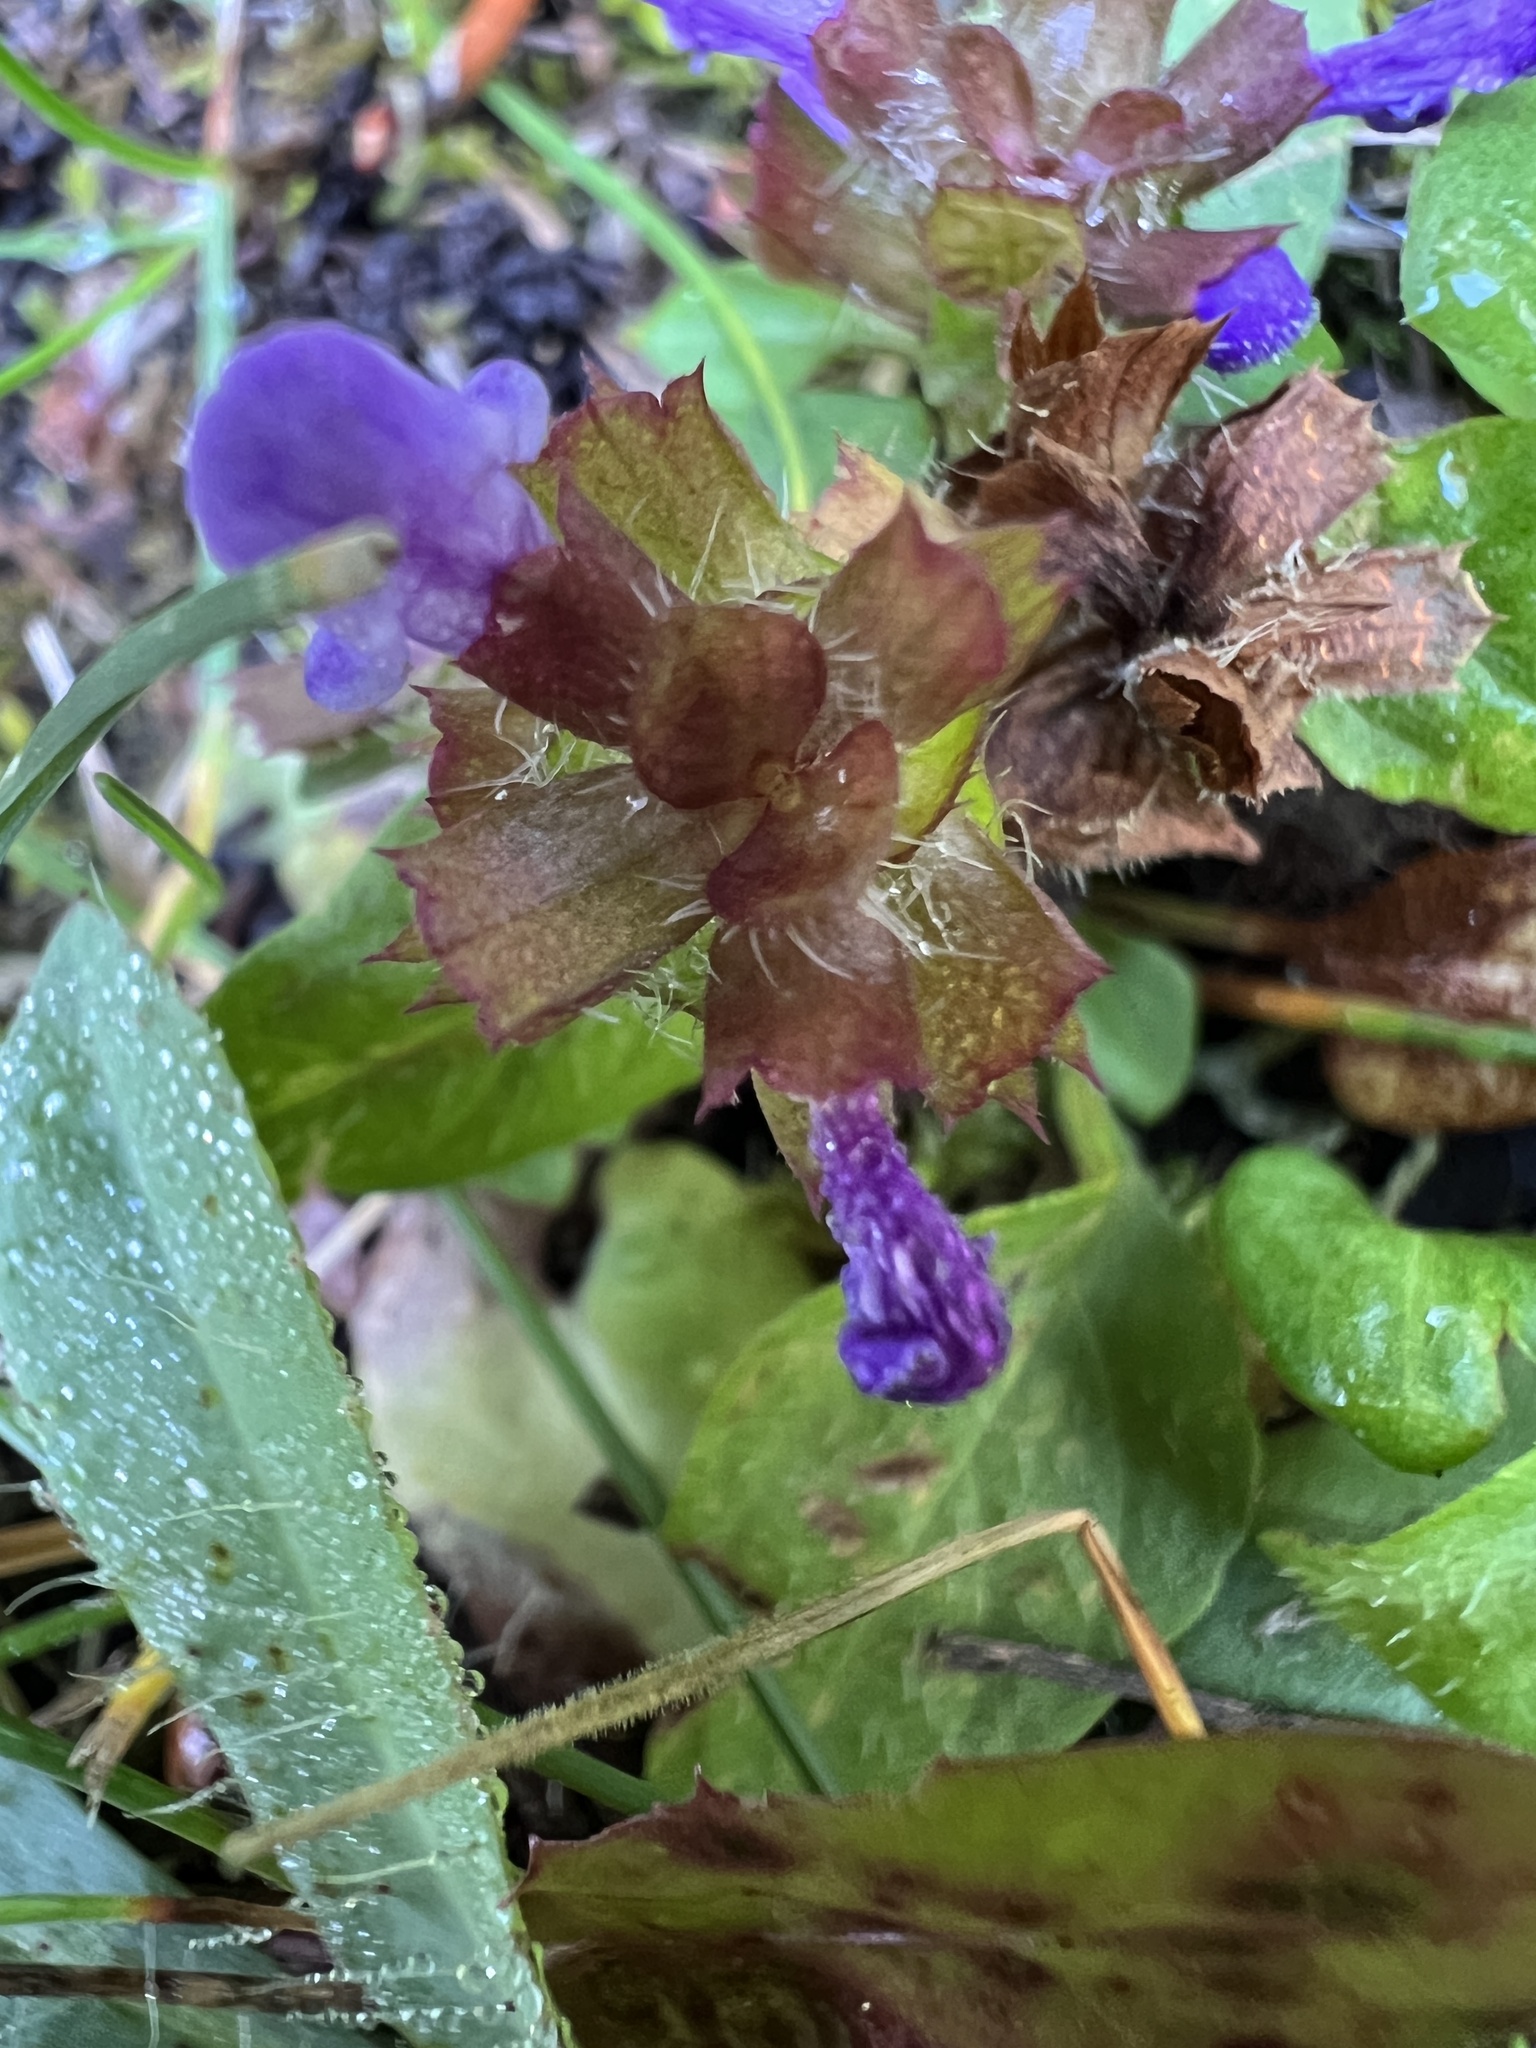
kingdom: Plantae
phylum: Tracheophyta
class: Magnoliopsida
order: Lamiales
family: Lamiaceae
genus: Prunella
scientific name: Prunella vulgaris
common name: Heal-all
